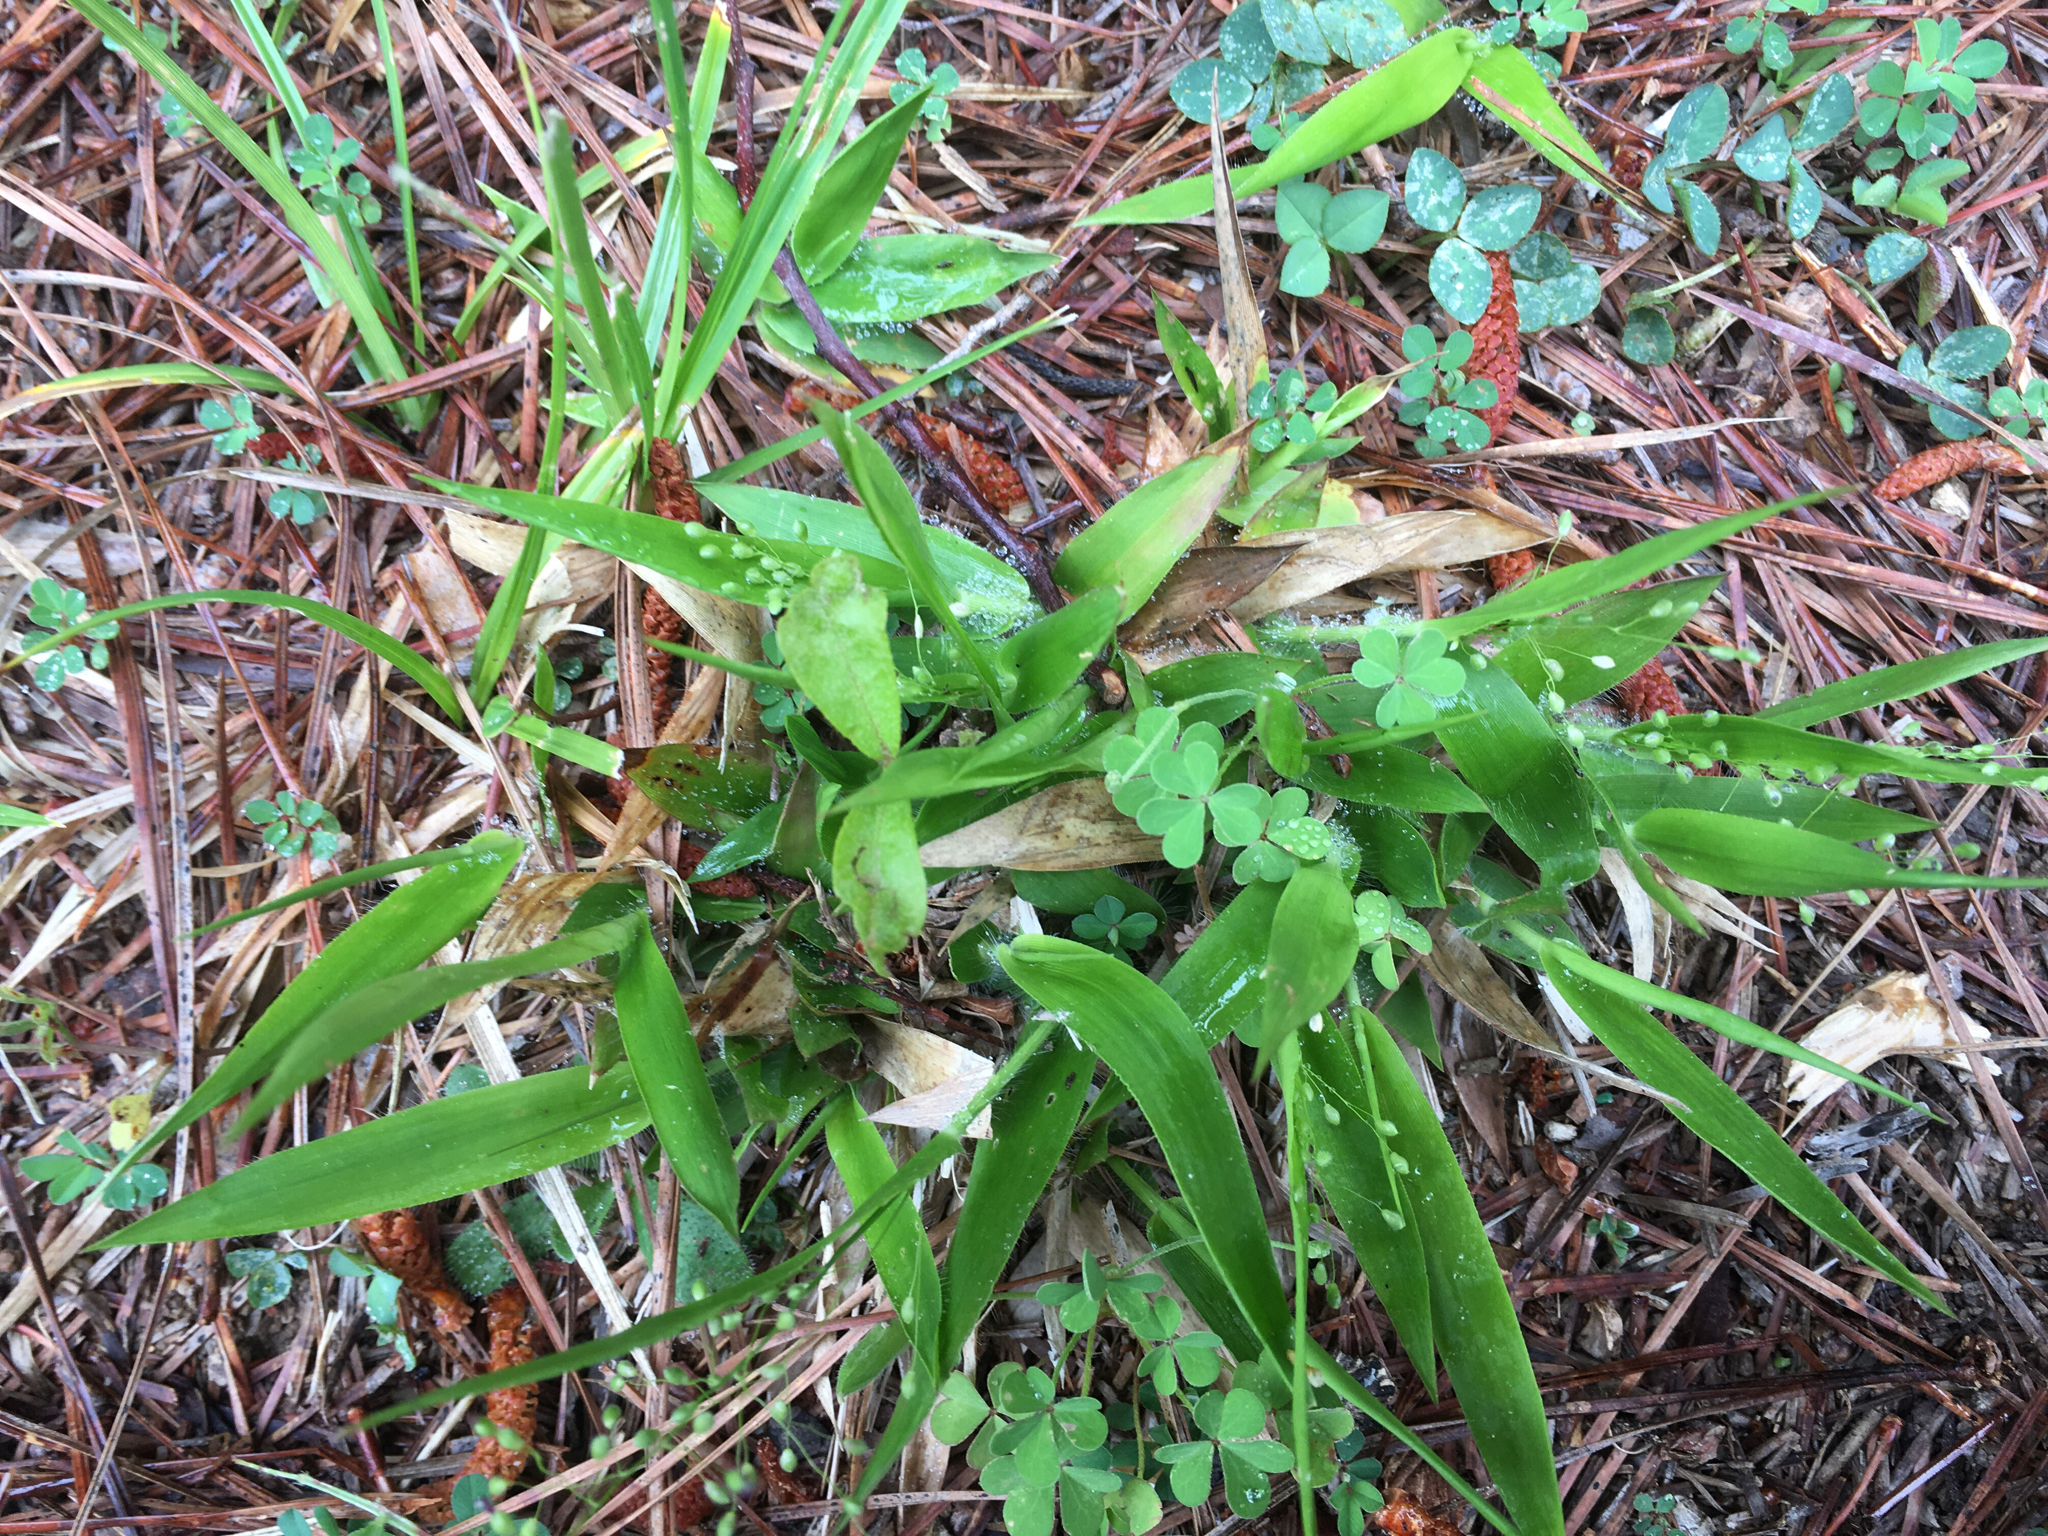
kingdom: Plantae
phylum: Tracheophyta
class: Liliopsida
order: Poales
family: Poaceae
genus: Dichanthelium
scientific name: Dichanthelium laxiflorum
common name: Soft-tuft panic grass
